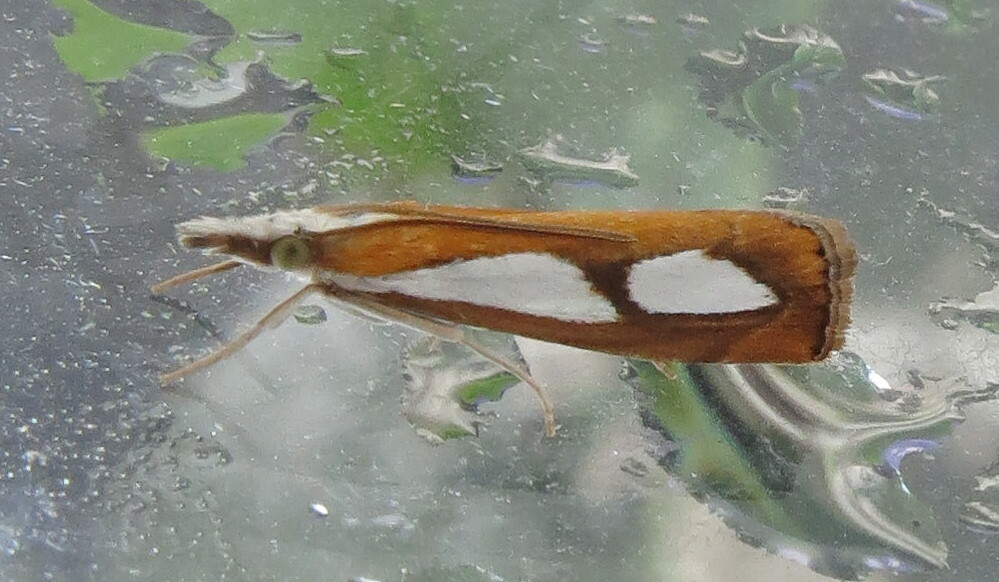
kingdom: Animalia
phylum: Arthropoda
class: Insecta
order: Lepidoptera
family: Crambidae
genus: Catoptria
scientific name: Catoptria pinella
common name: Pearl grass-veneer
